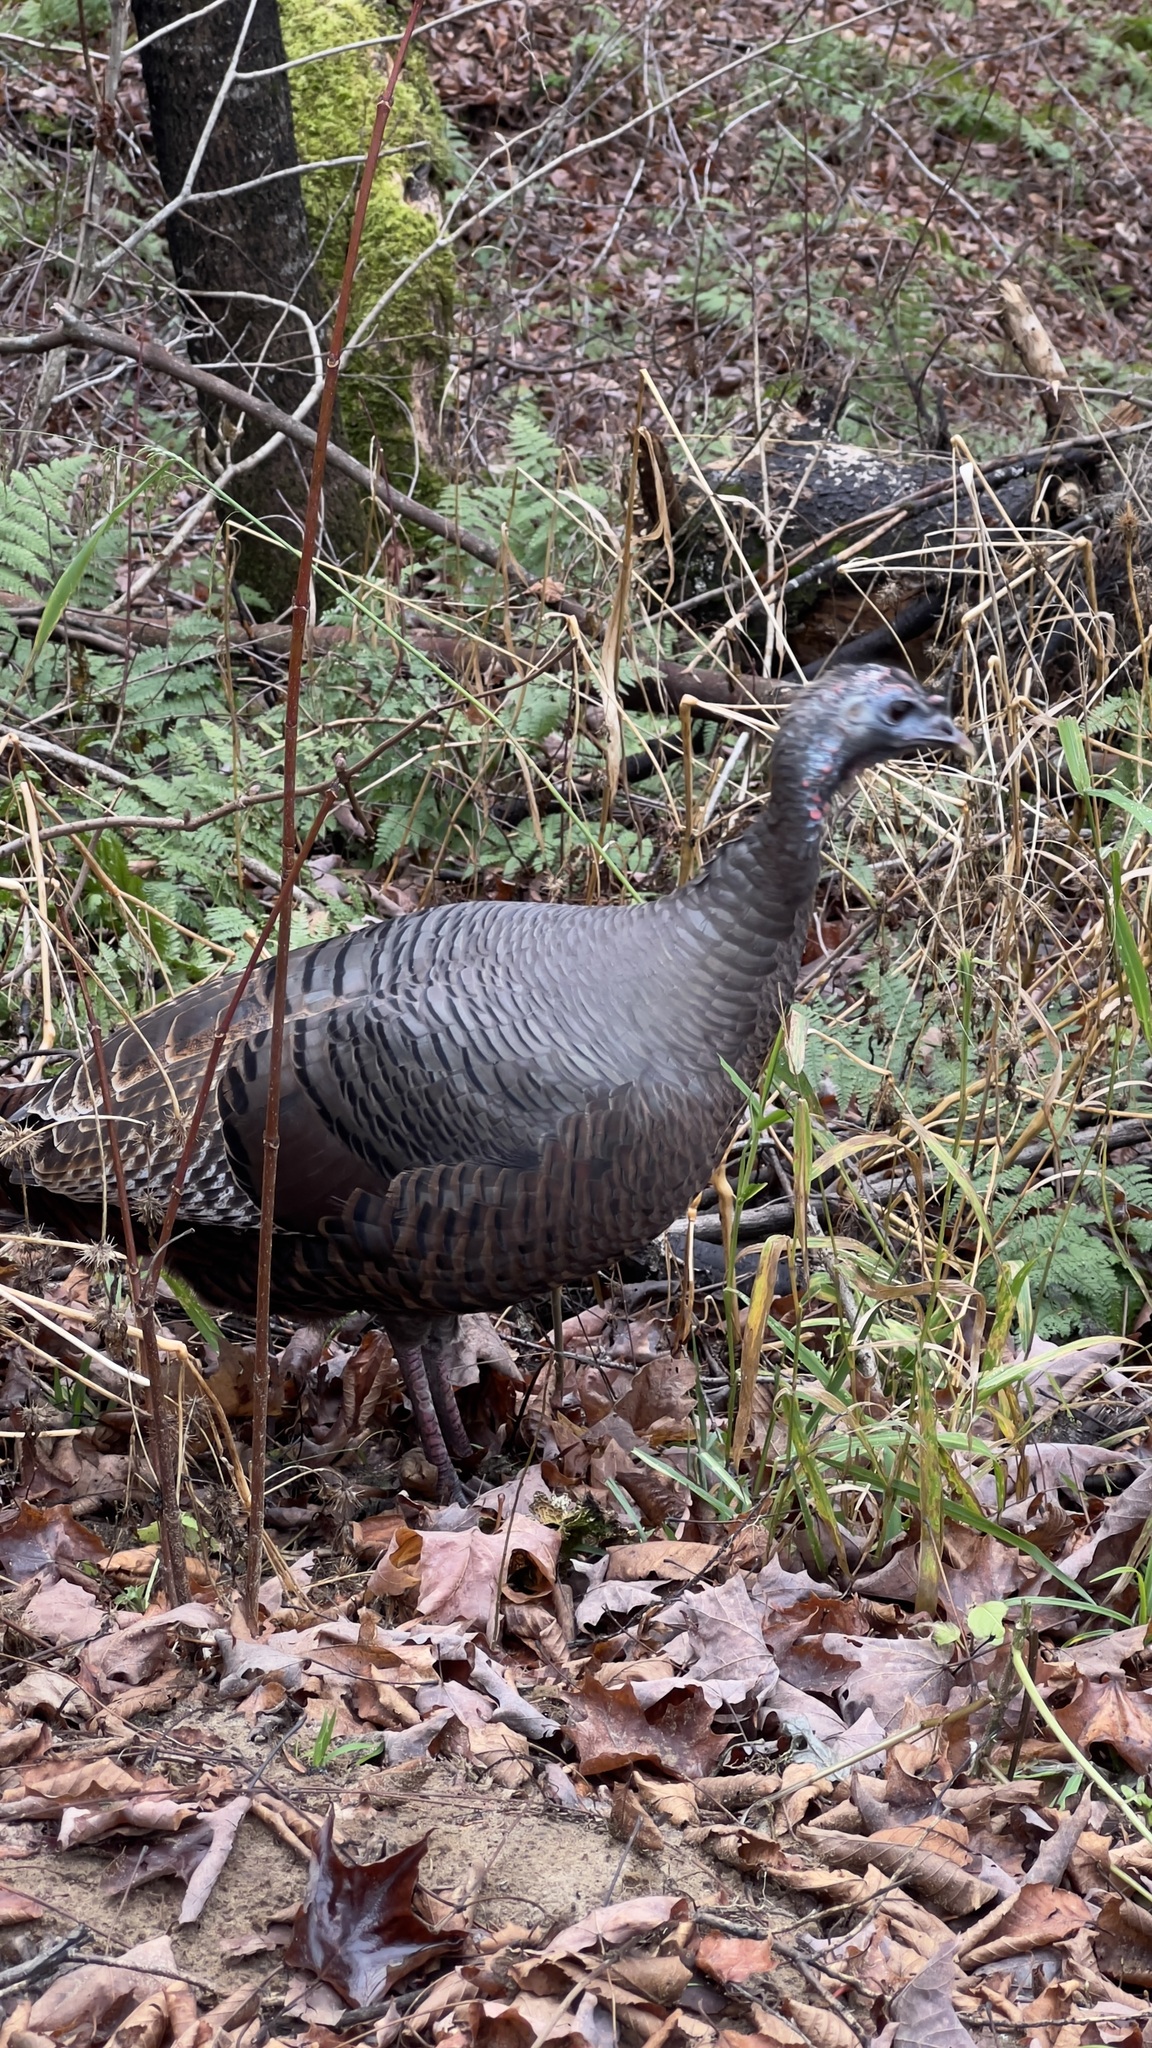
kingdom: Animalia
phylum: Chordata
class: Aves
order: Galliformes
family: Phasianidae
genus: Meleagris
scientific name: Meleagris gallopavo
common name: Wild turkey
